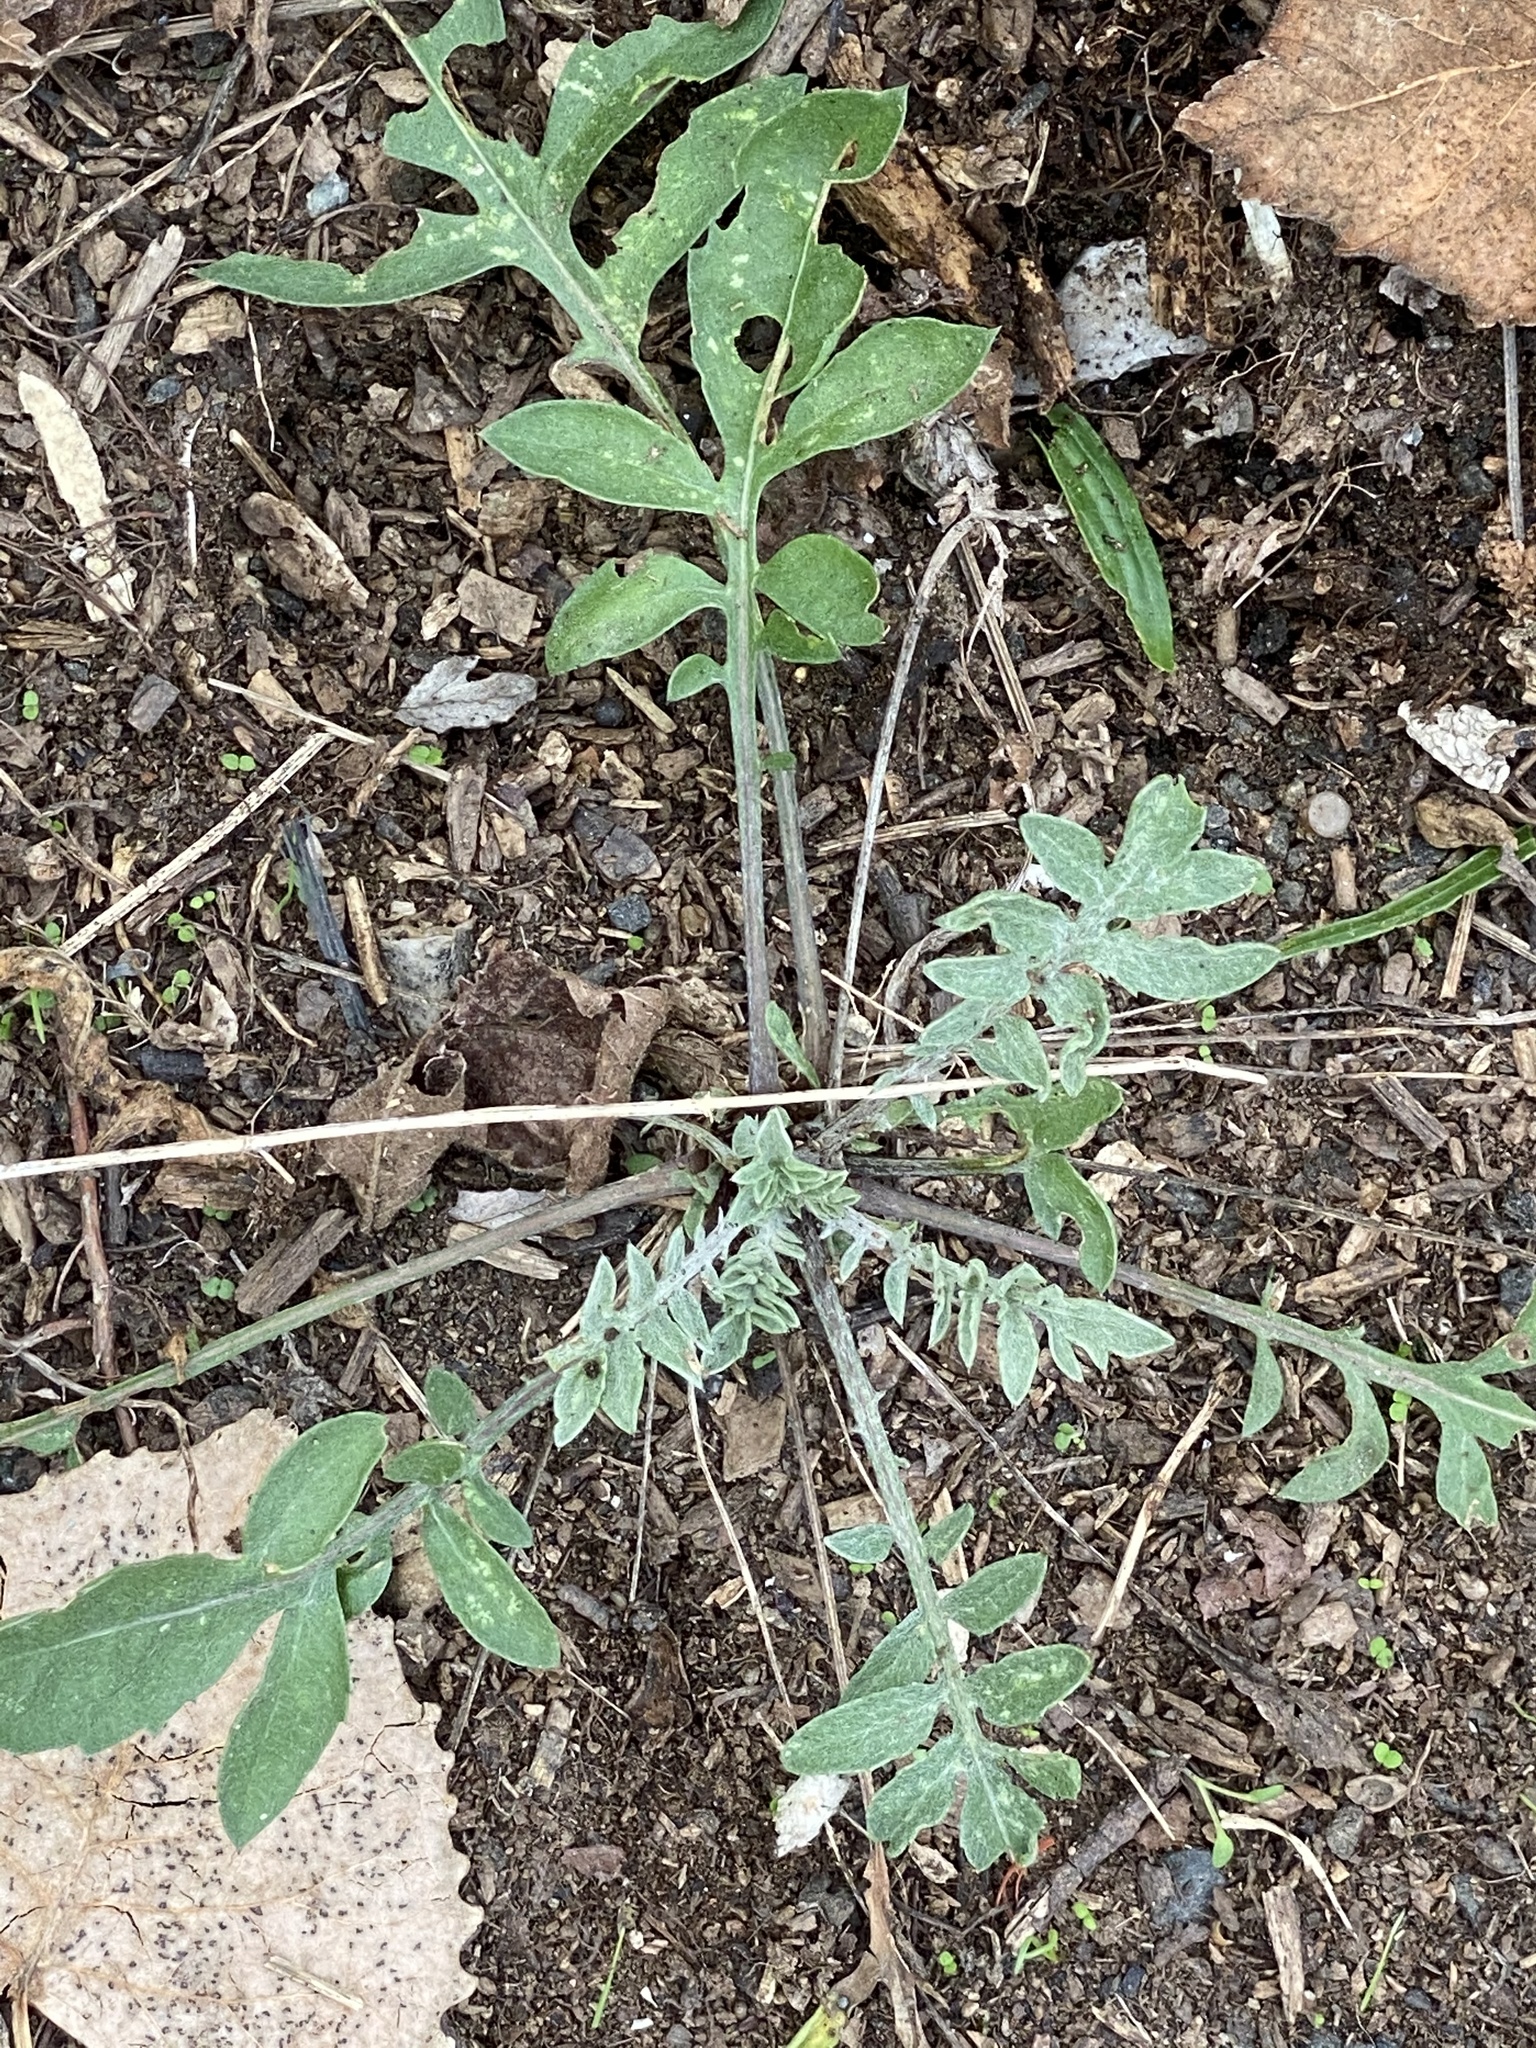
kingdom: Plantae
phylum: Tracheophyta
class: Magnoliopsida
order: Asterales
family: Asteraceae
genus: Centaurea
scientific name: Centaurea stoebe
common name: Spotted knapweed
